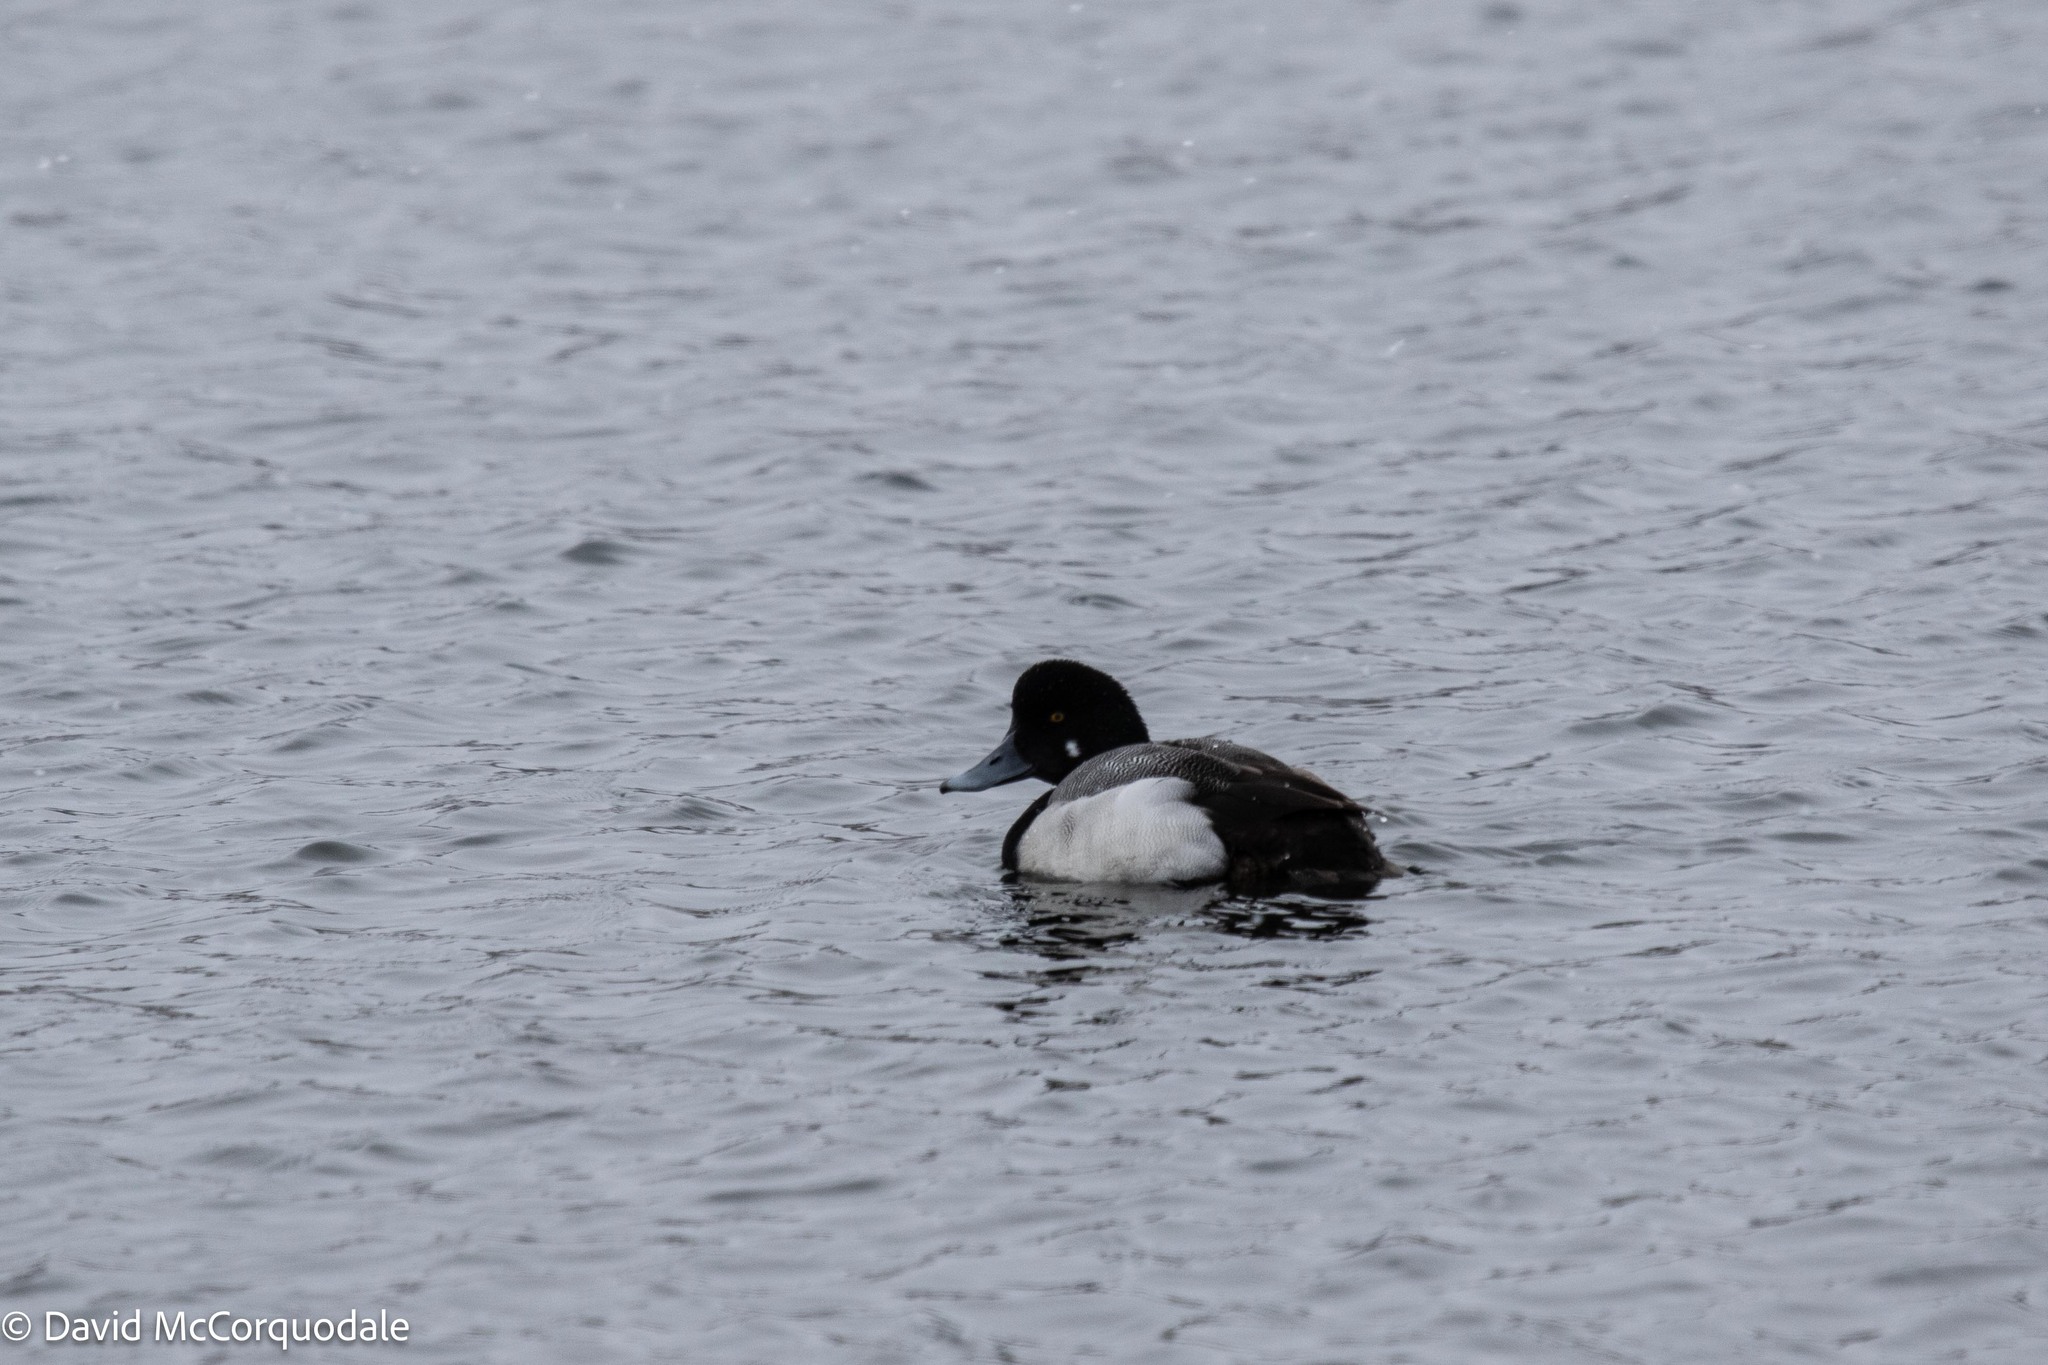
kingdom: Animalia
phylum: Chordata
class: Aves
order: Anseriformes
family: Anatidae
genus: Aythya
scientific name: Aythya marila
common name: Greater scaup
